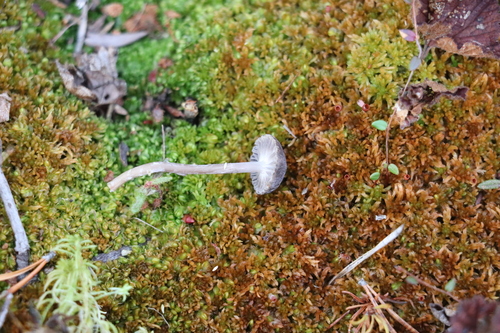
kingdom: Fungi
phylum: Basidiomycota
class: Agaricomycetes
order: Agaricales
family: Mycenaceae
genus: Mycena
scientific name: Mycena megaspora
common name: Rooting bonnet
